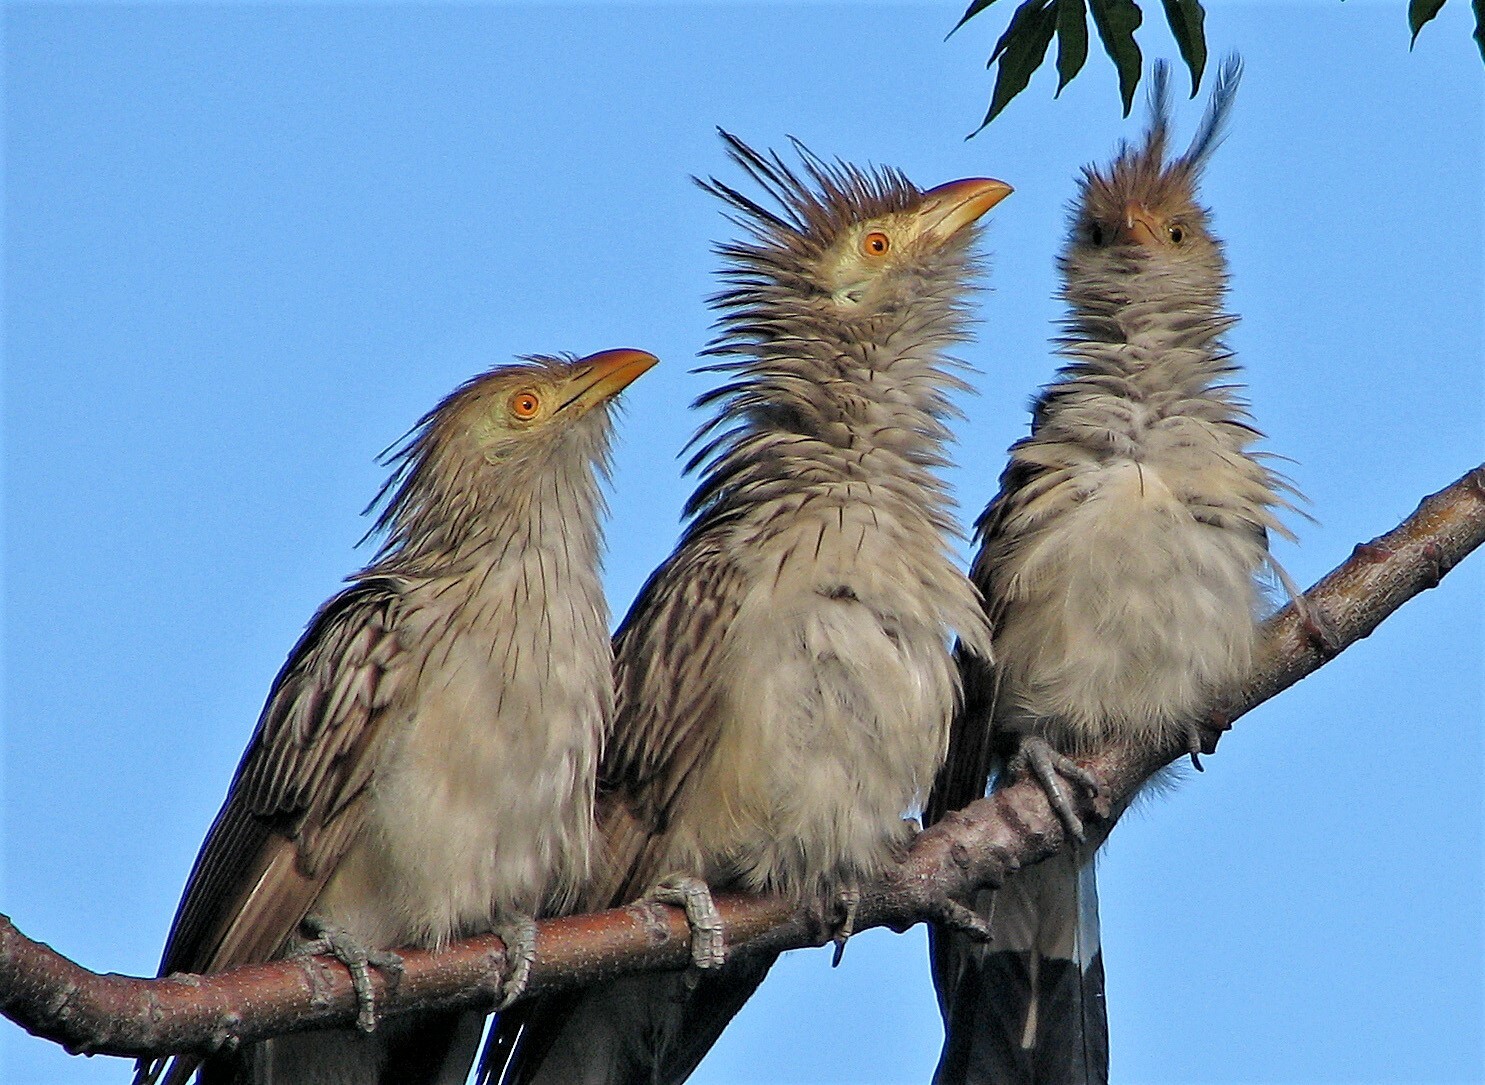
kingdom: Animalia
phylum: Chordata
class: Aves
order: Cuculiformes
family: Cuculidae
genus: Guira
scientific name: Guira guira
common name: Guira cuckoo
